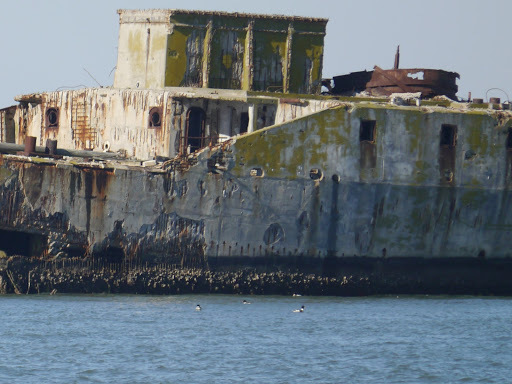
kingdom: Animalia
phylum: Chordata
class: Aves
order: Anseriformes
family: Anatidae
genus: Mergus
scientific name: Mergus serrator
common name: Red-breasted merganser
